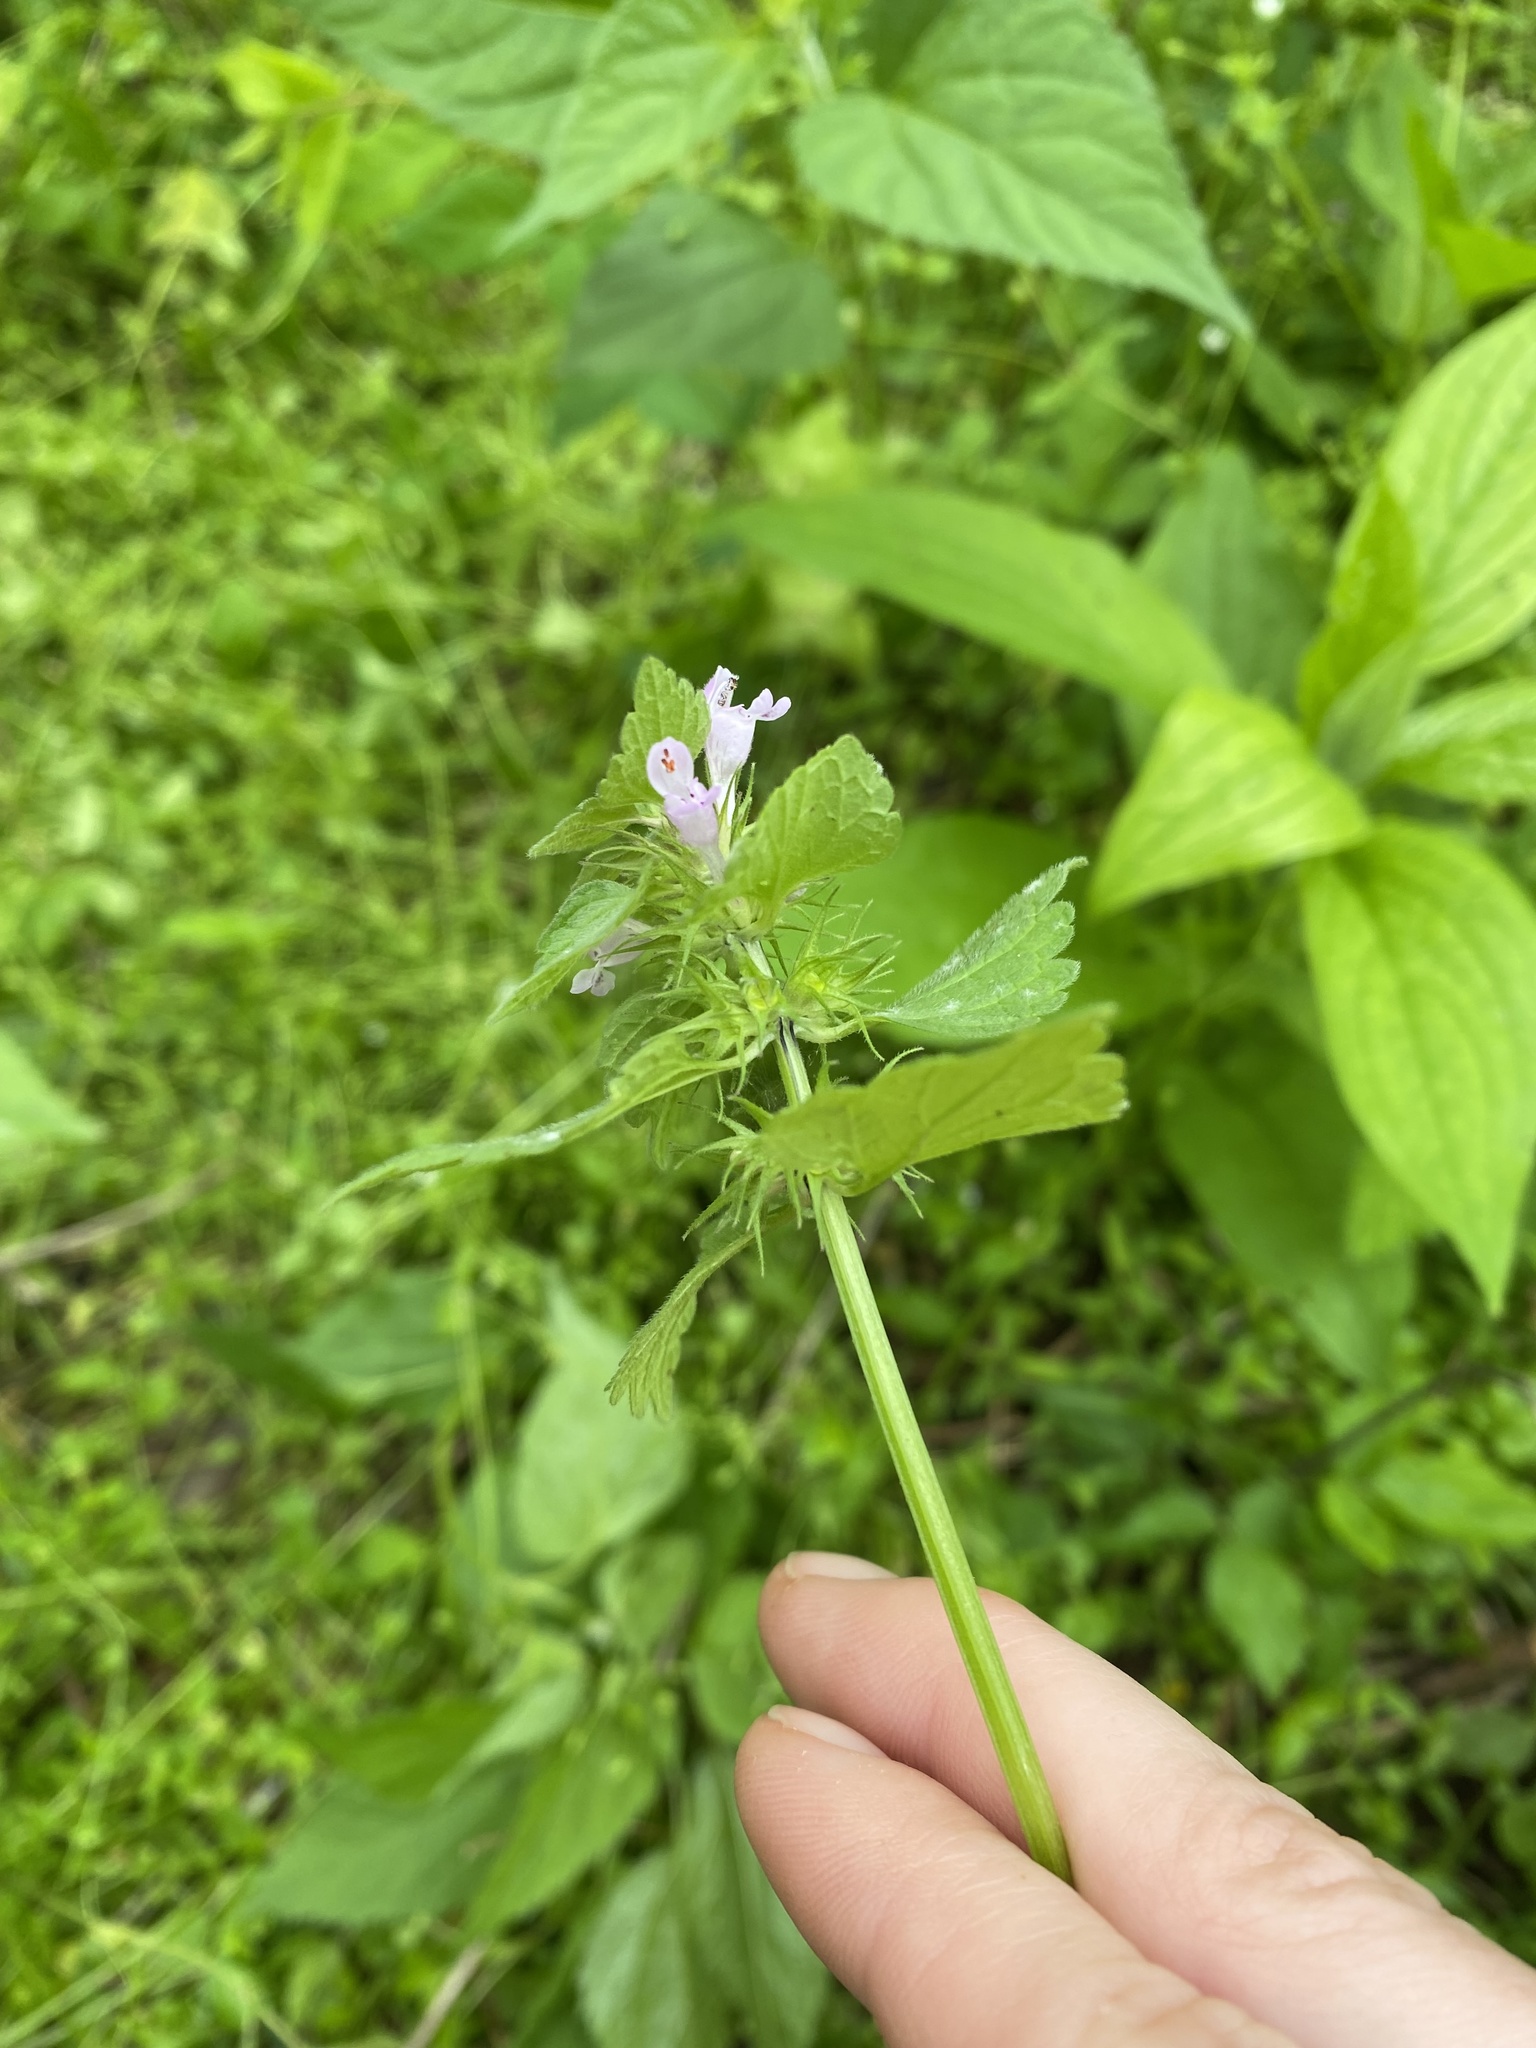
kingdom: Plantae
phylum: Tracheophyta
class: Magnoliopsida
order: Lamiales
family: Lamiaceae
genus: Lamium
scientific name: Lamium purpureum
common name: Red dead-nettle
